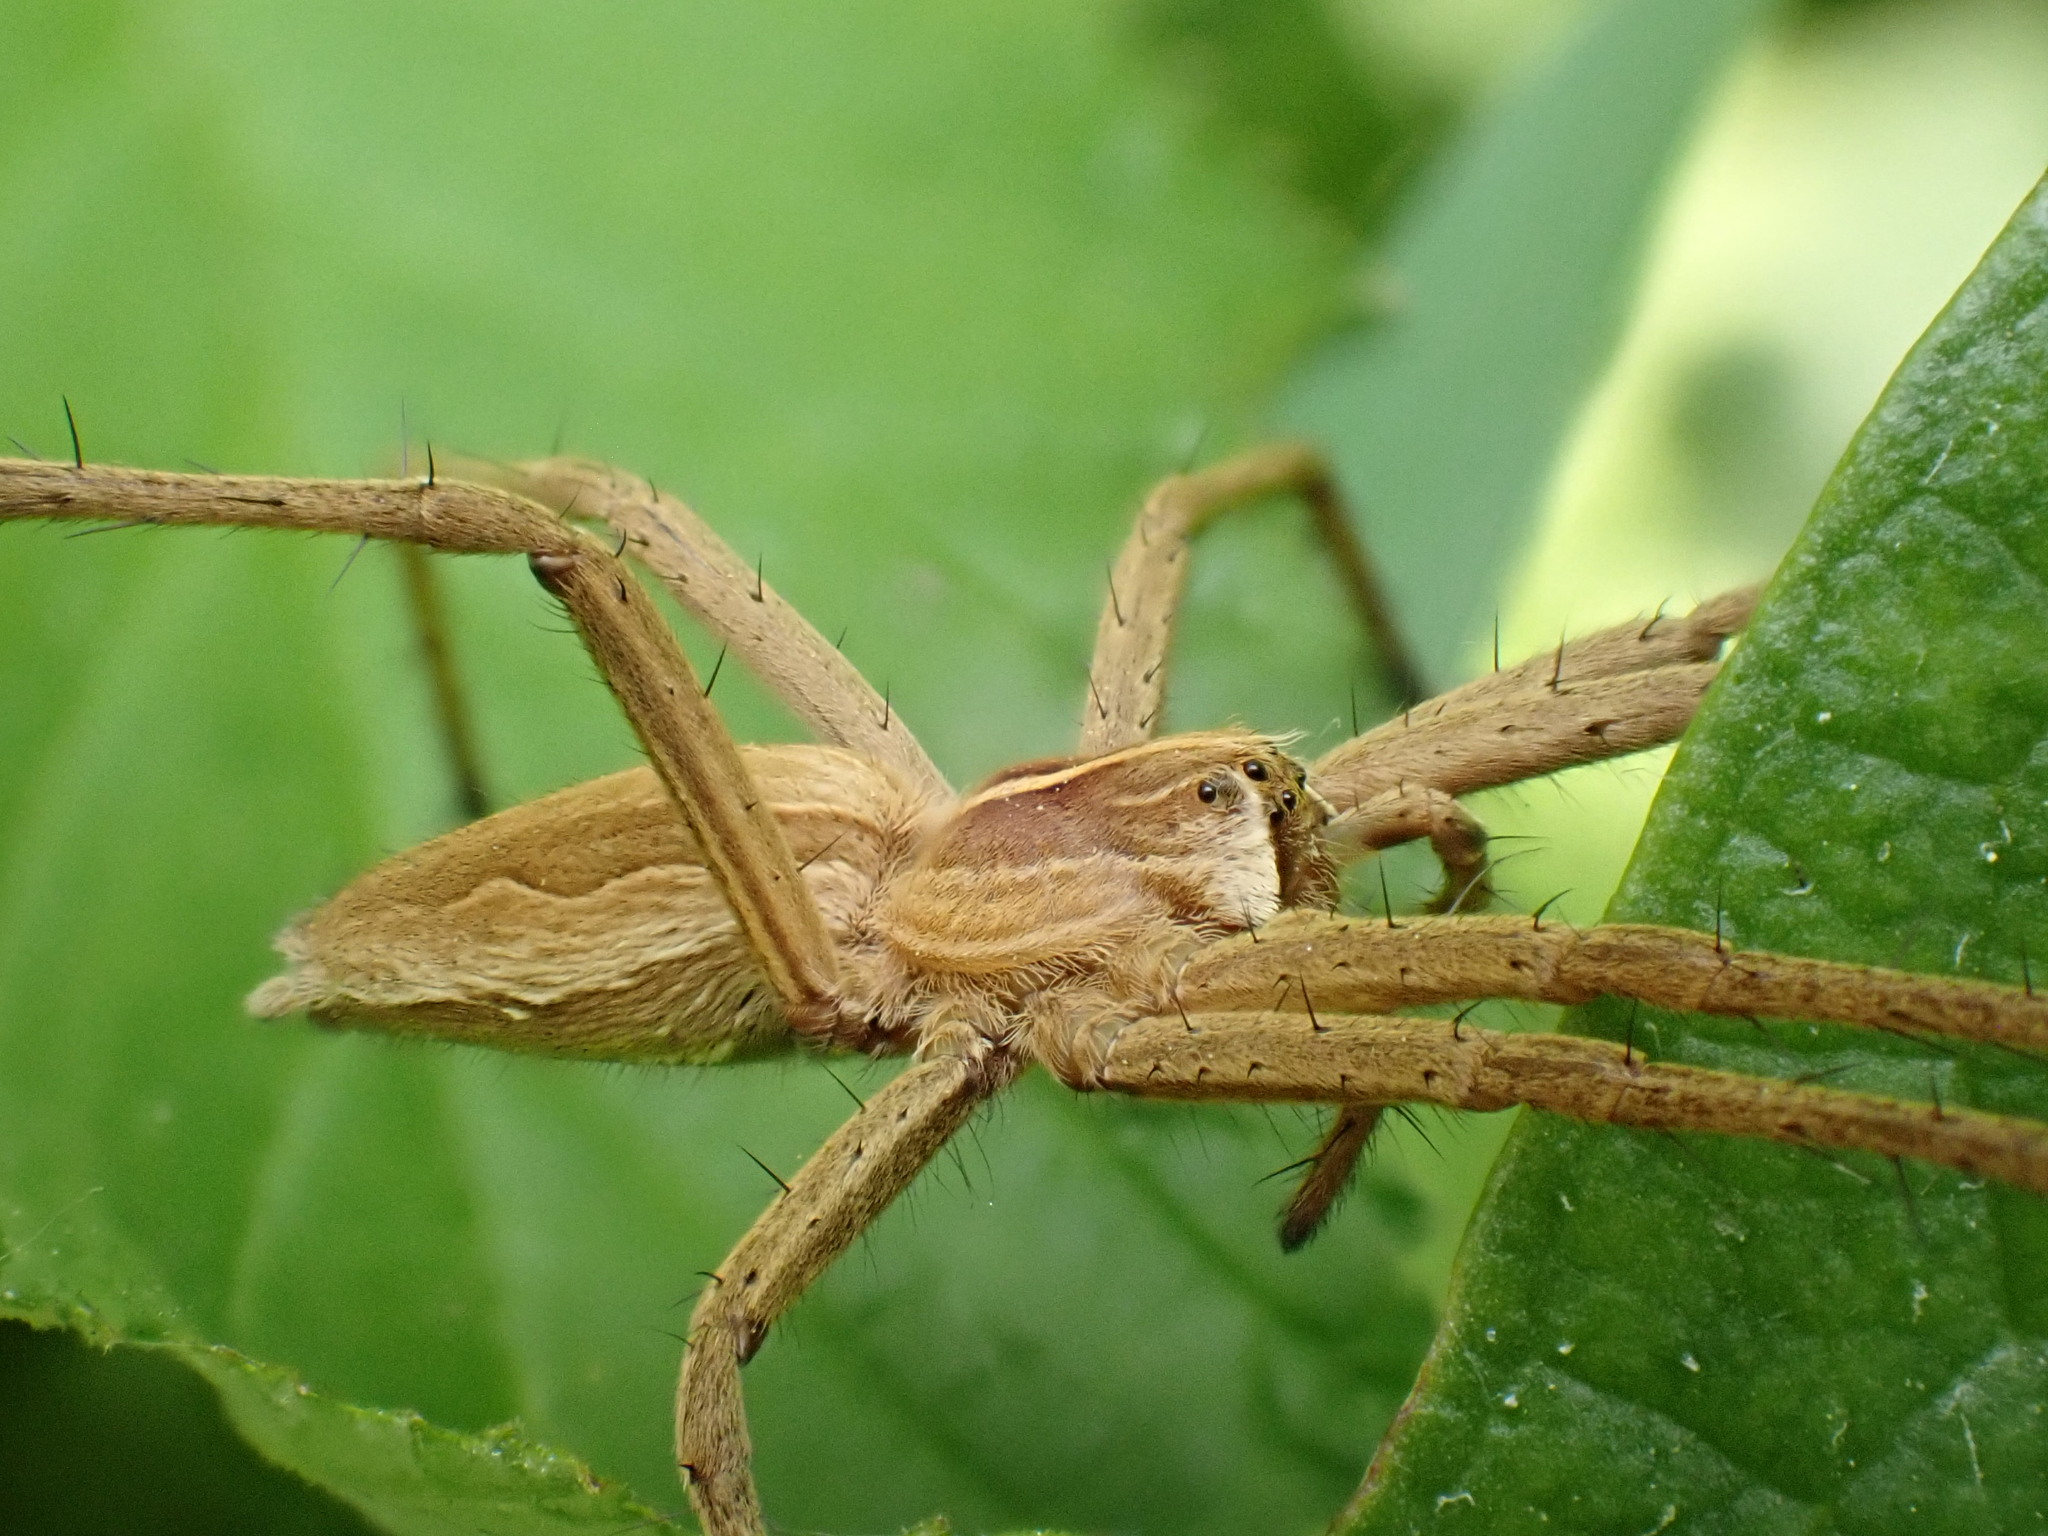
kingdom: Animalia
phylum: Arthropoda
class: Arachnida
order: Araneae
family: Pisauridae
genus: Pisaura
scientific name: Pisaura mirabilis
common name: Tent spider
